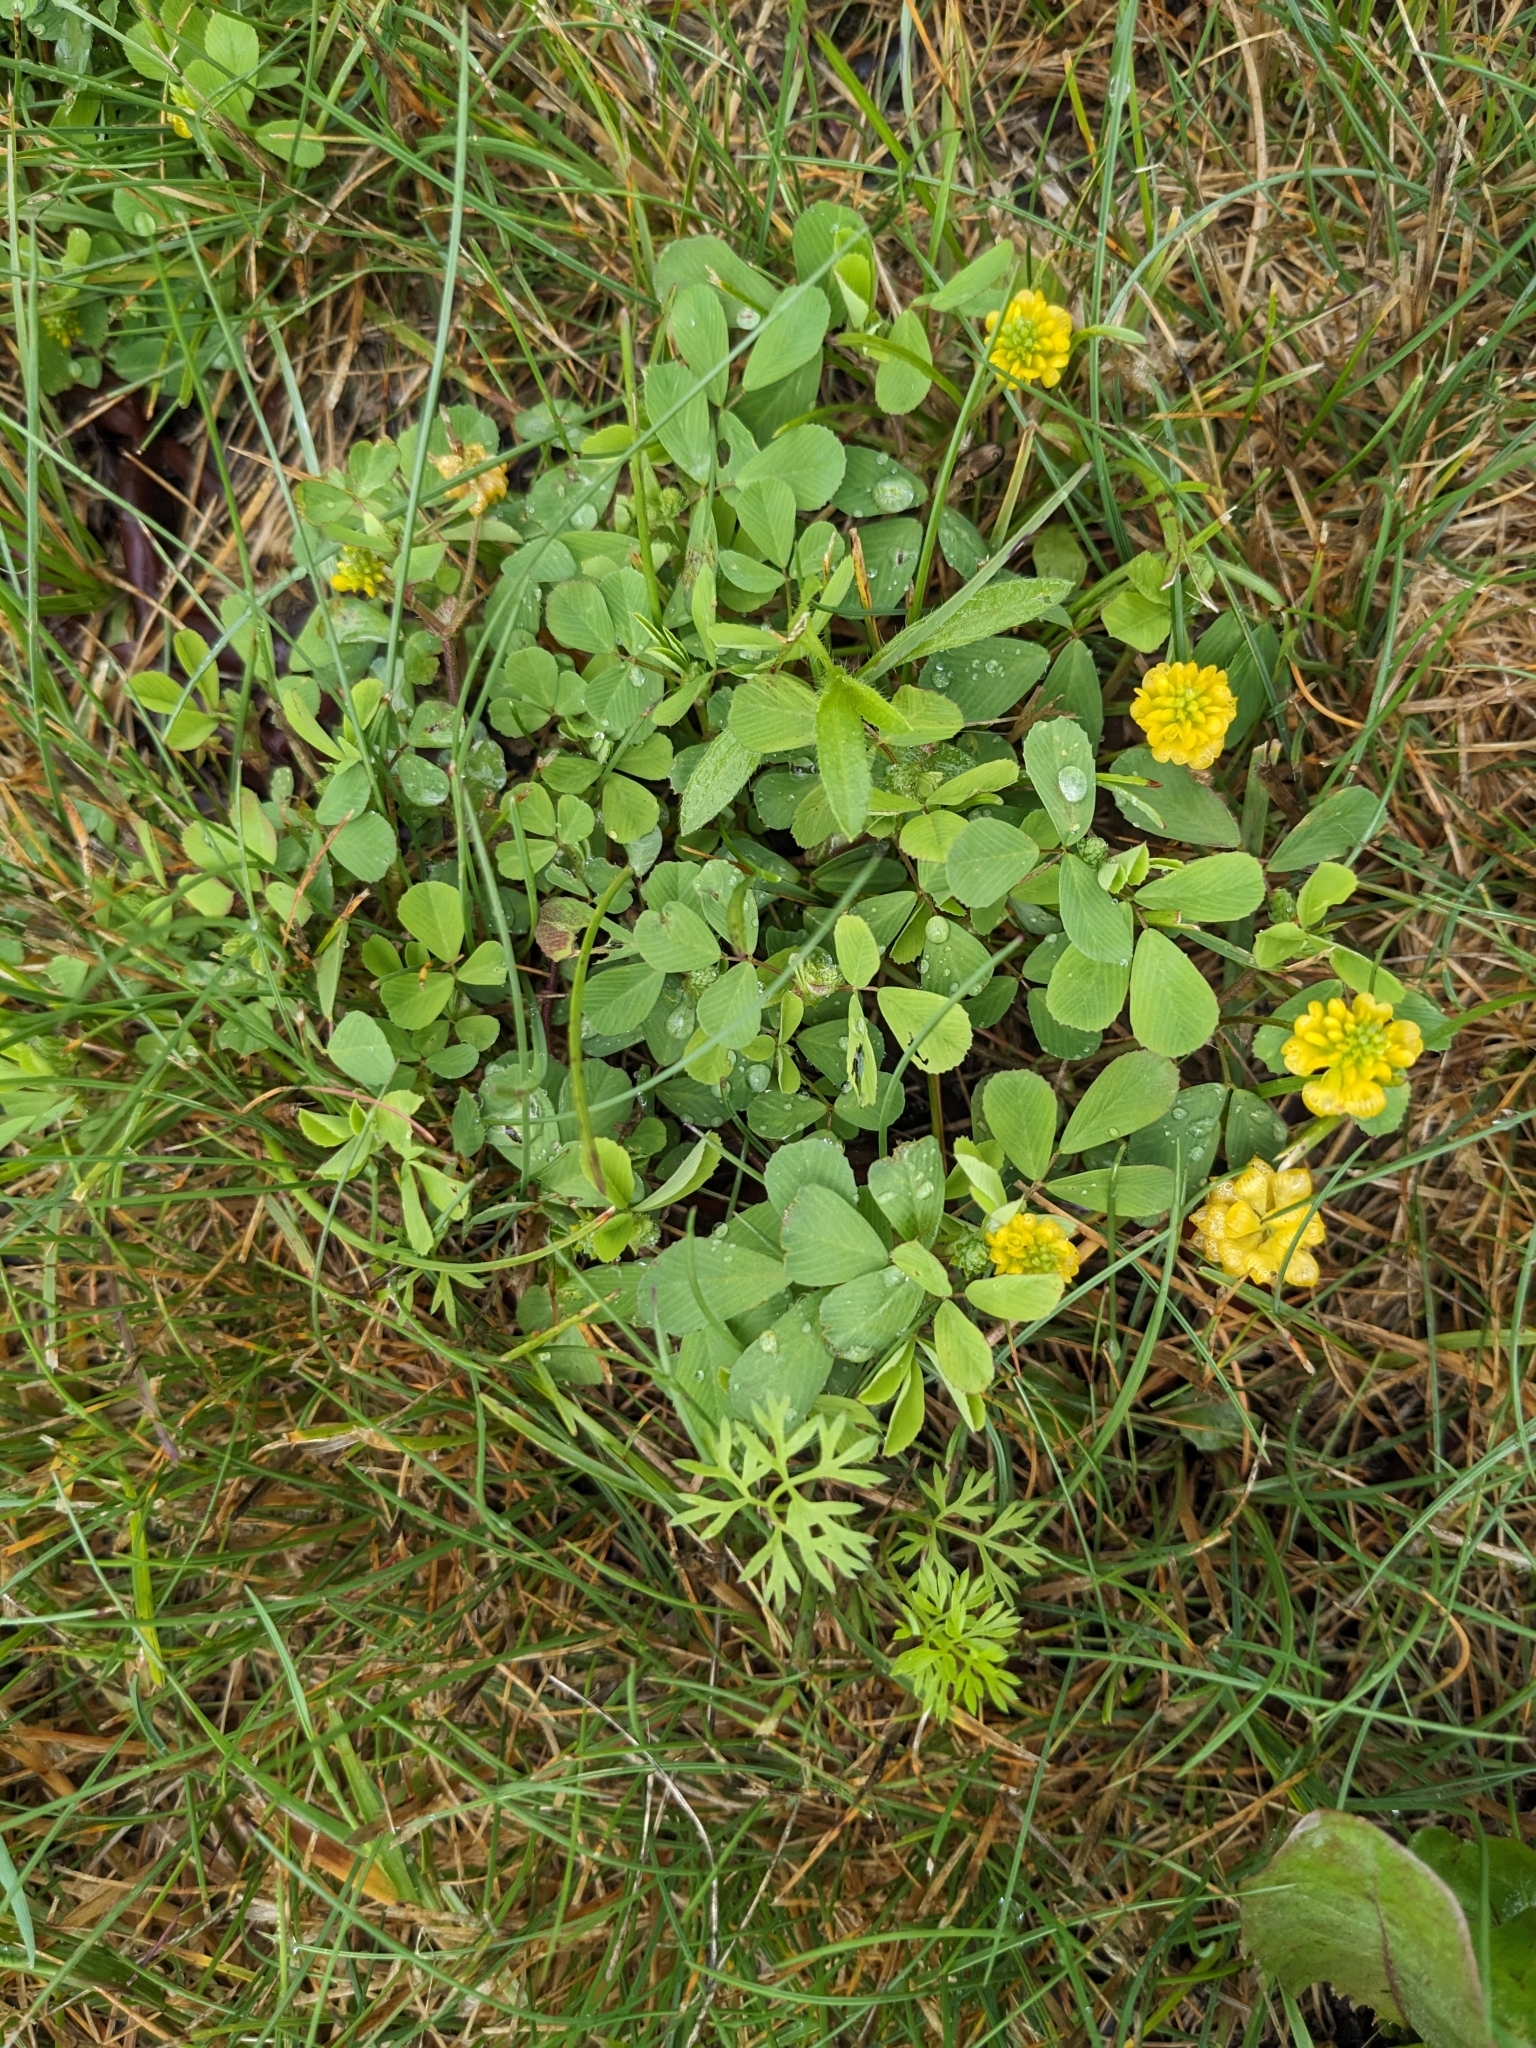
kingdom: Plantae
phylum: Tracheophyta
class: Magnoliopsida
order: Fabales
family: Fabaceae
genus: Trifolium
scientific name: Trifolium campestre
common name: Field clover
